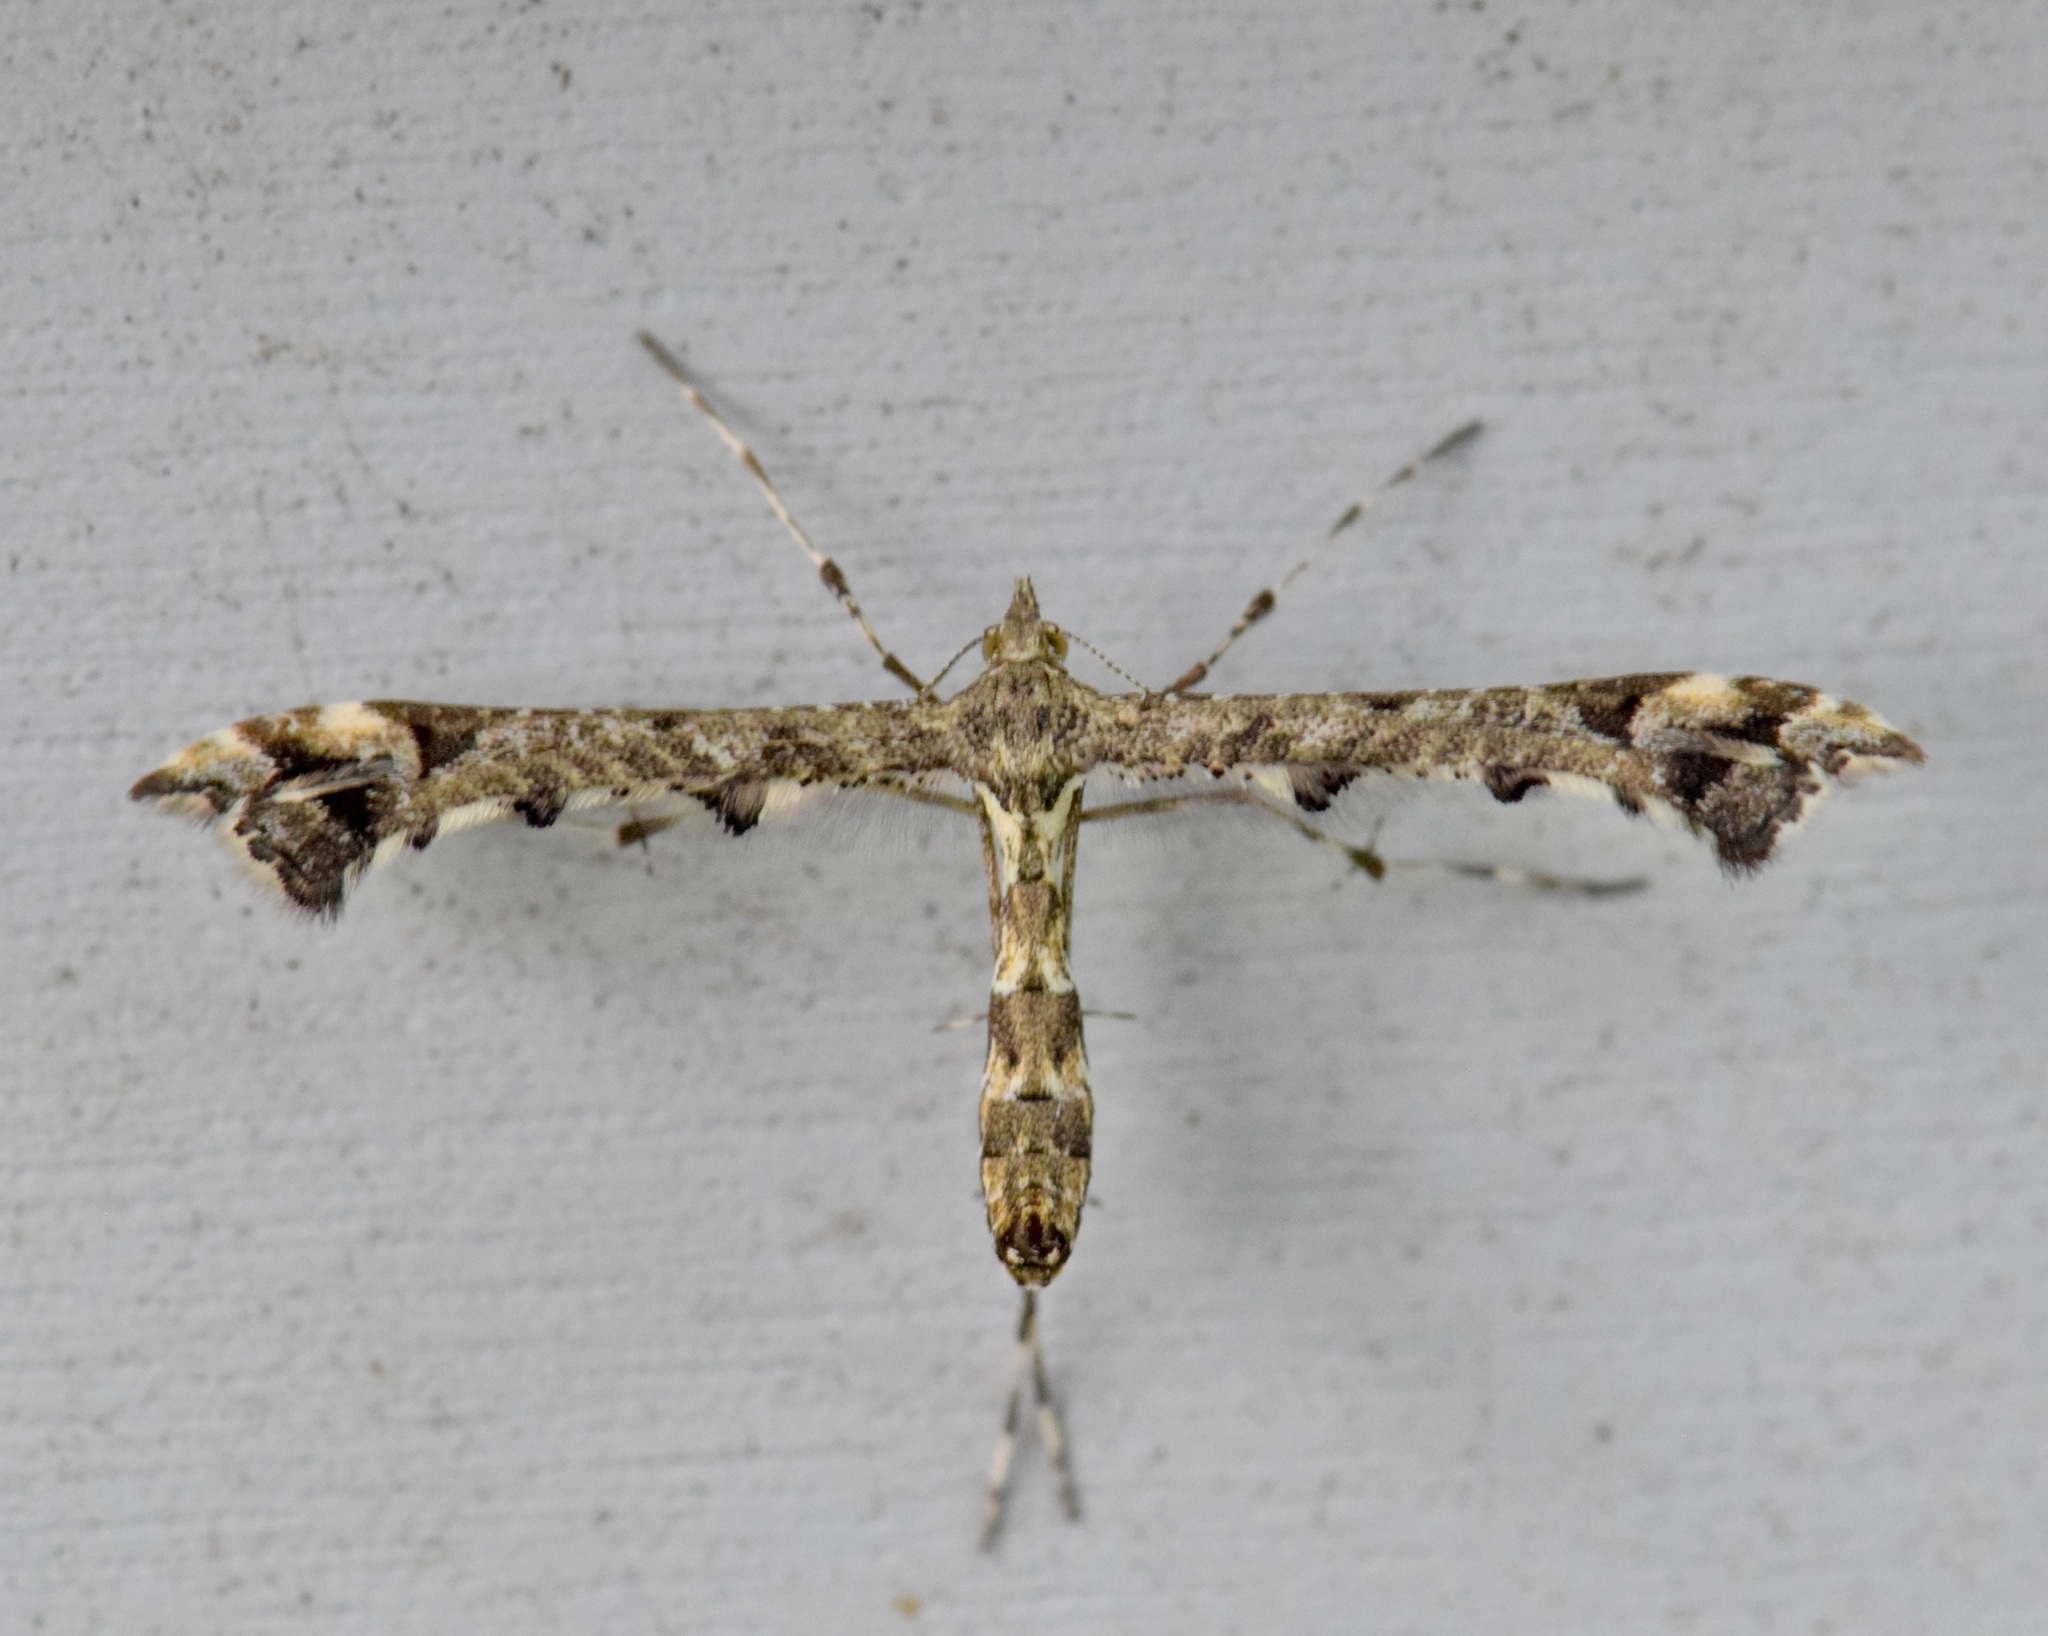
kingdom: Animalia
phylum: Arthropoda
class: Insecta
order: Lepidoptera
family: Pterophoridae
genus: Amblyptilia
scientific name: Amblyptilia pica
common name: Geranium plume moth
